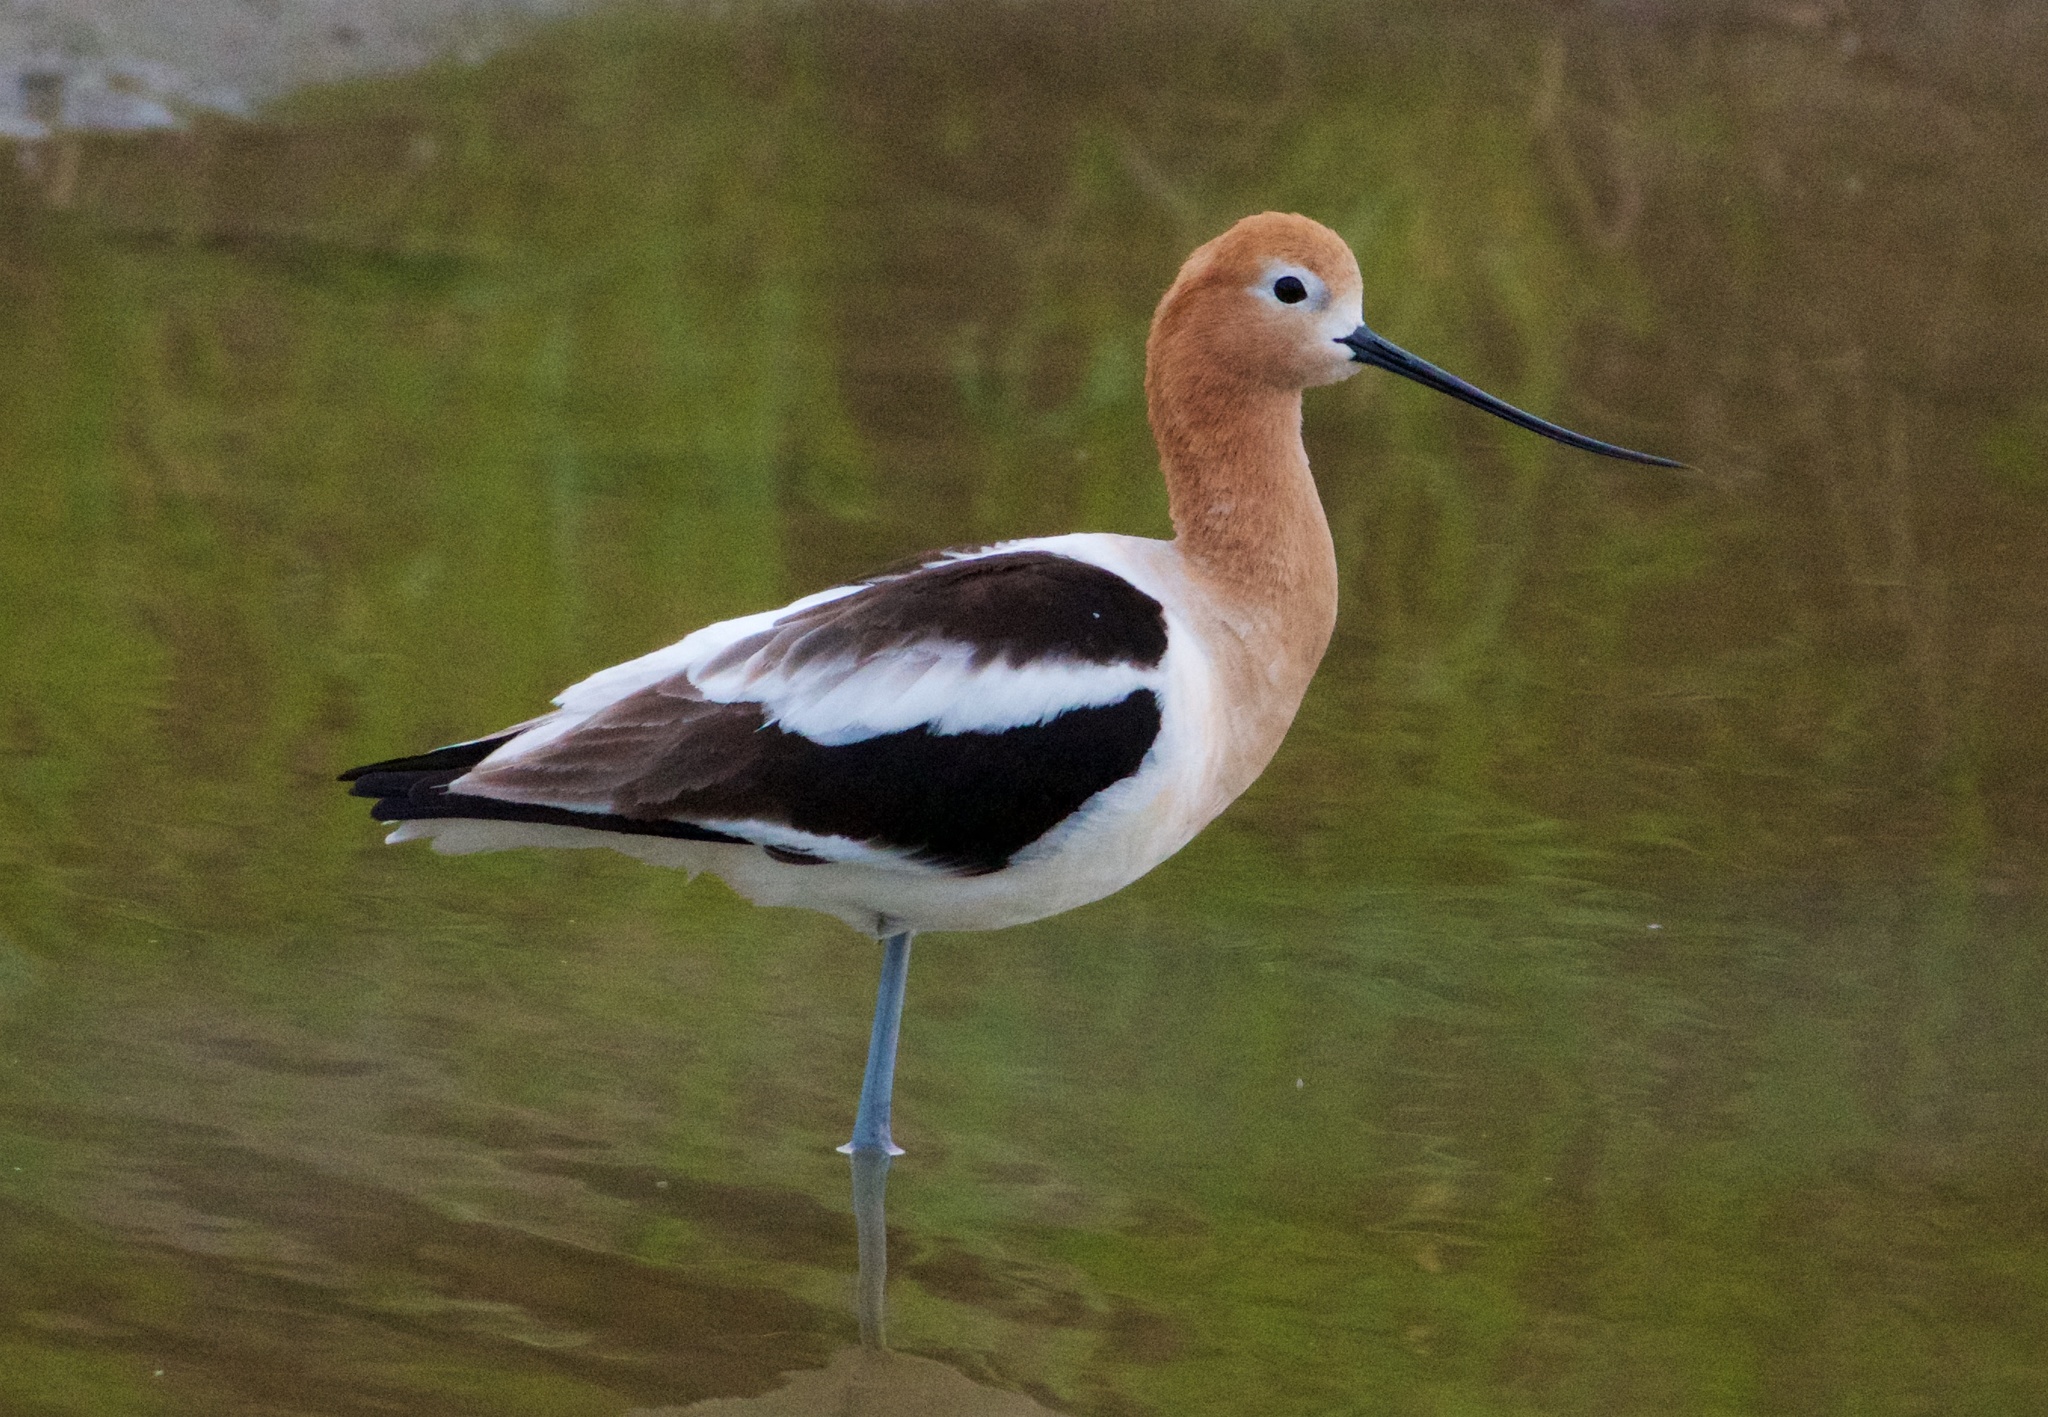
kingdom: Animalia
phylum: Chordata
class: Aves
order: Charadriiformes
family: Recurvirostridae
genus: Recurvirostra
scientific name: Recurvirostra americana
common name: American avocet
